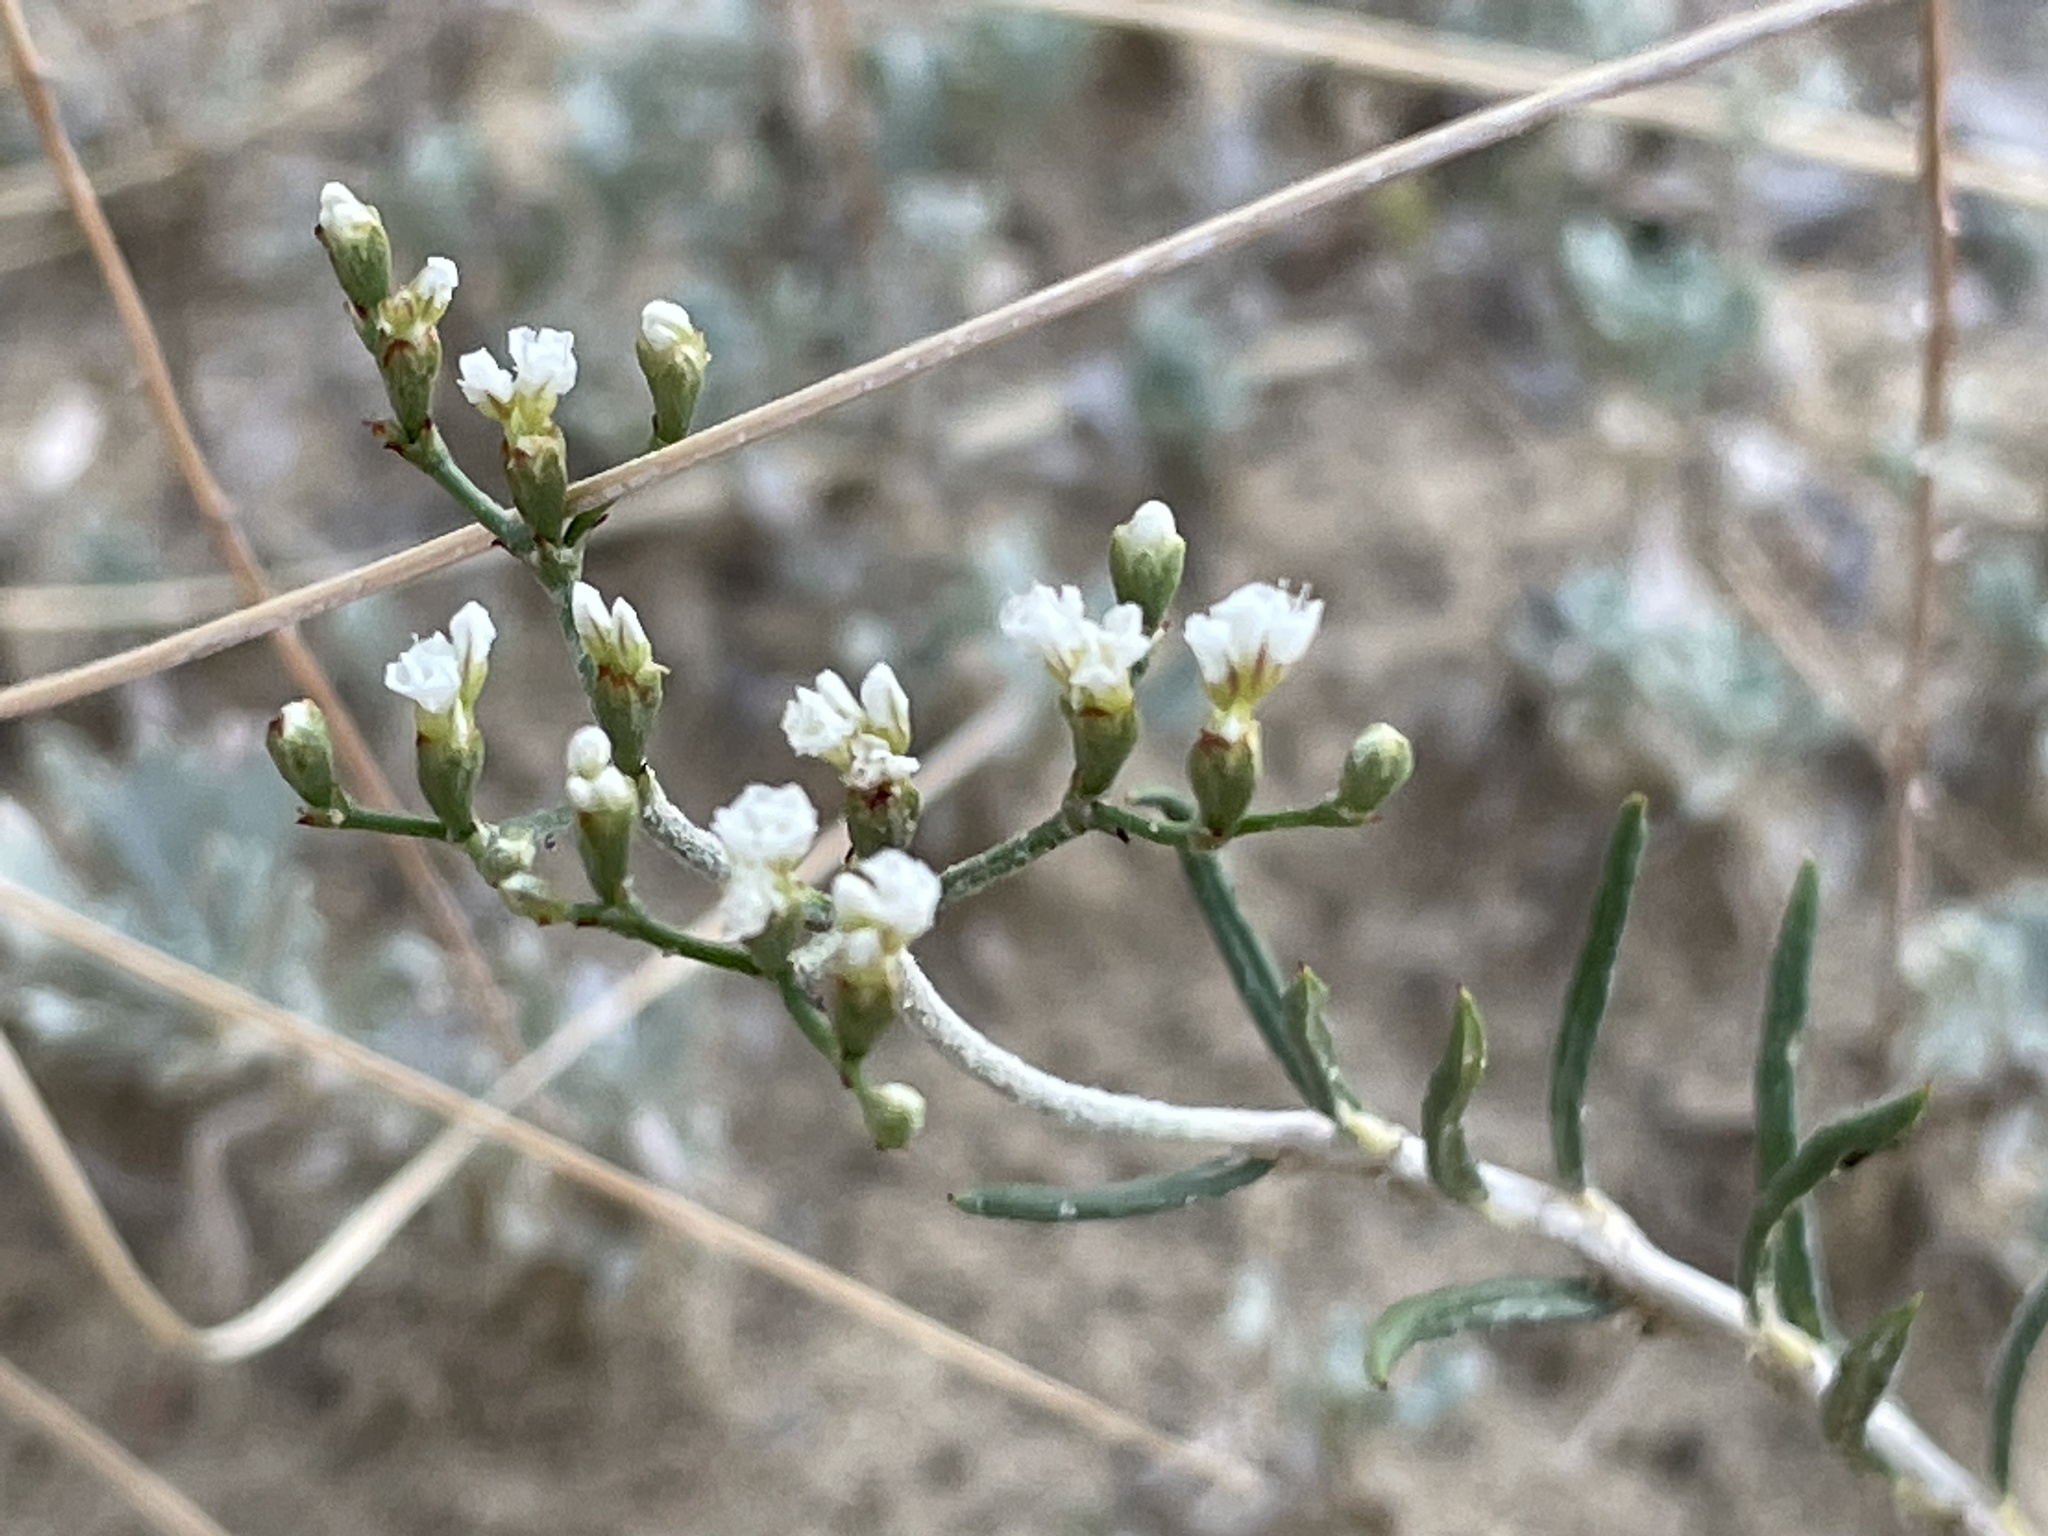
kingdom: Plantae
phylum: Tracheophyta
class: Magnoliopsida
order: Caryophyllales
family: Polygonaceae
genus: Eriogonum
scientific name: Eriogonum leptophyllum
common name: Slender-leaf wild buckwheat
